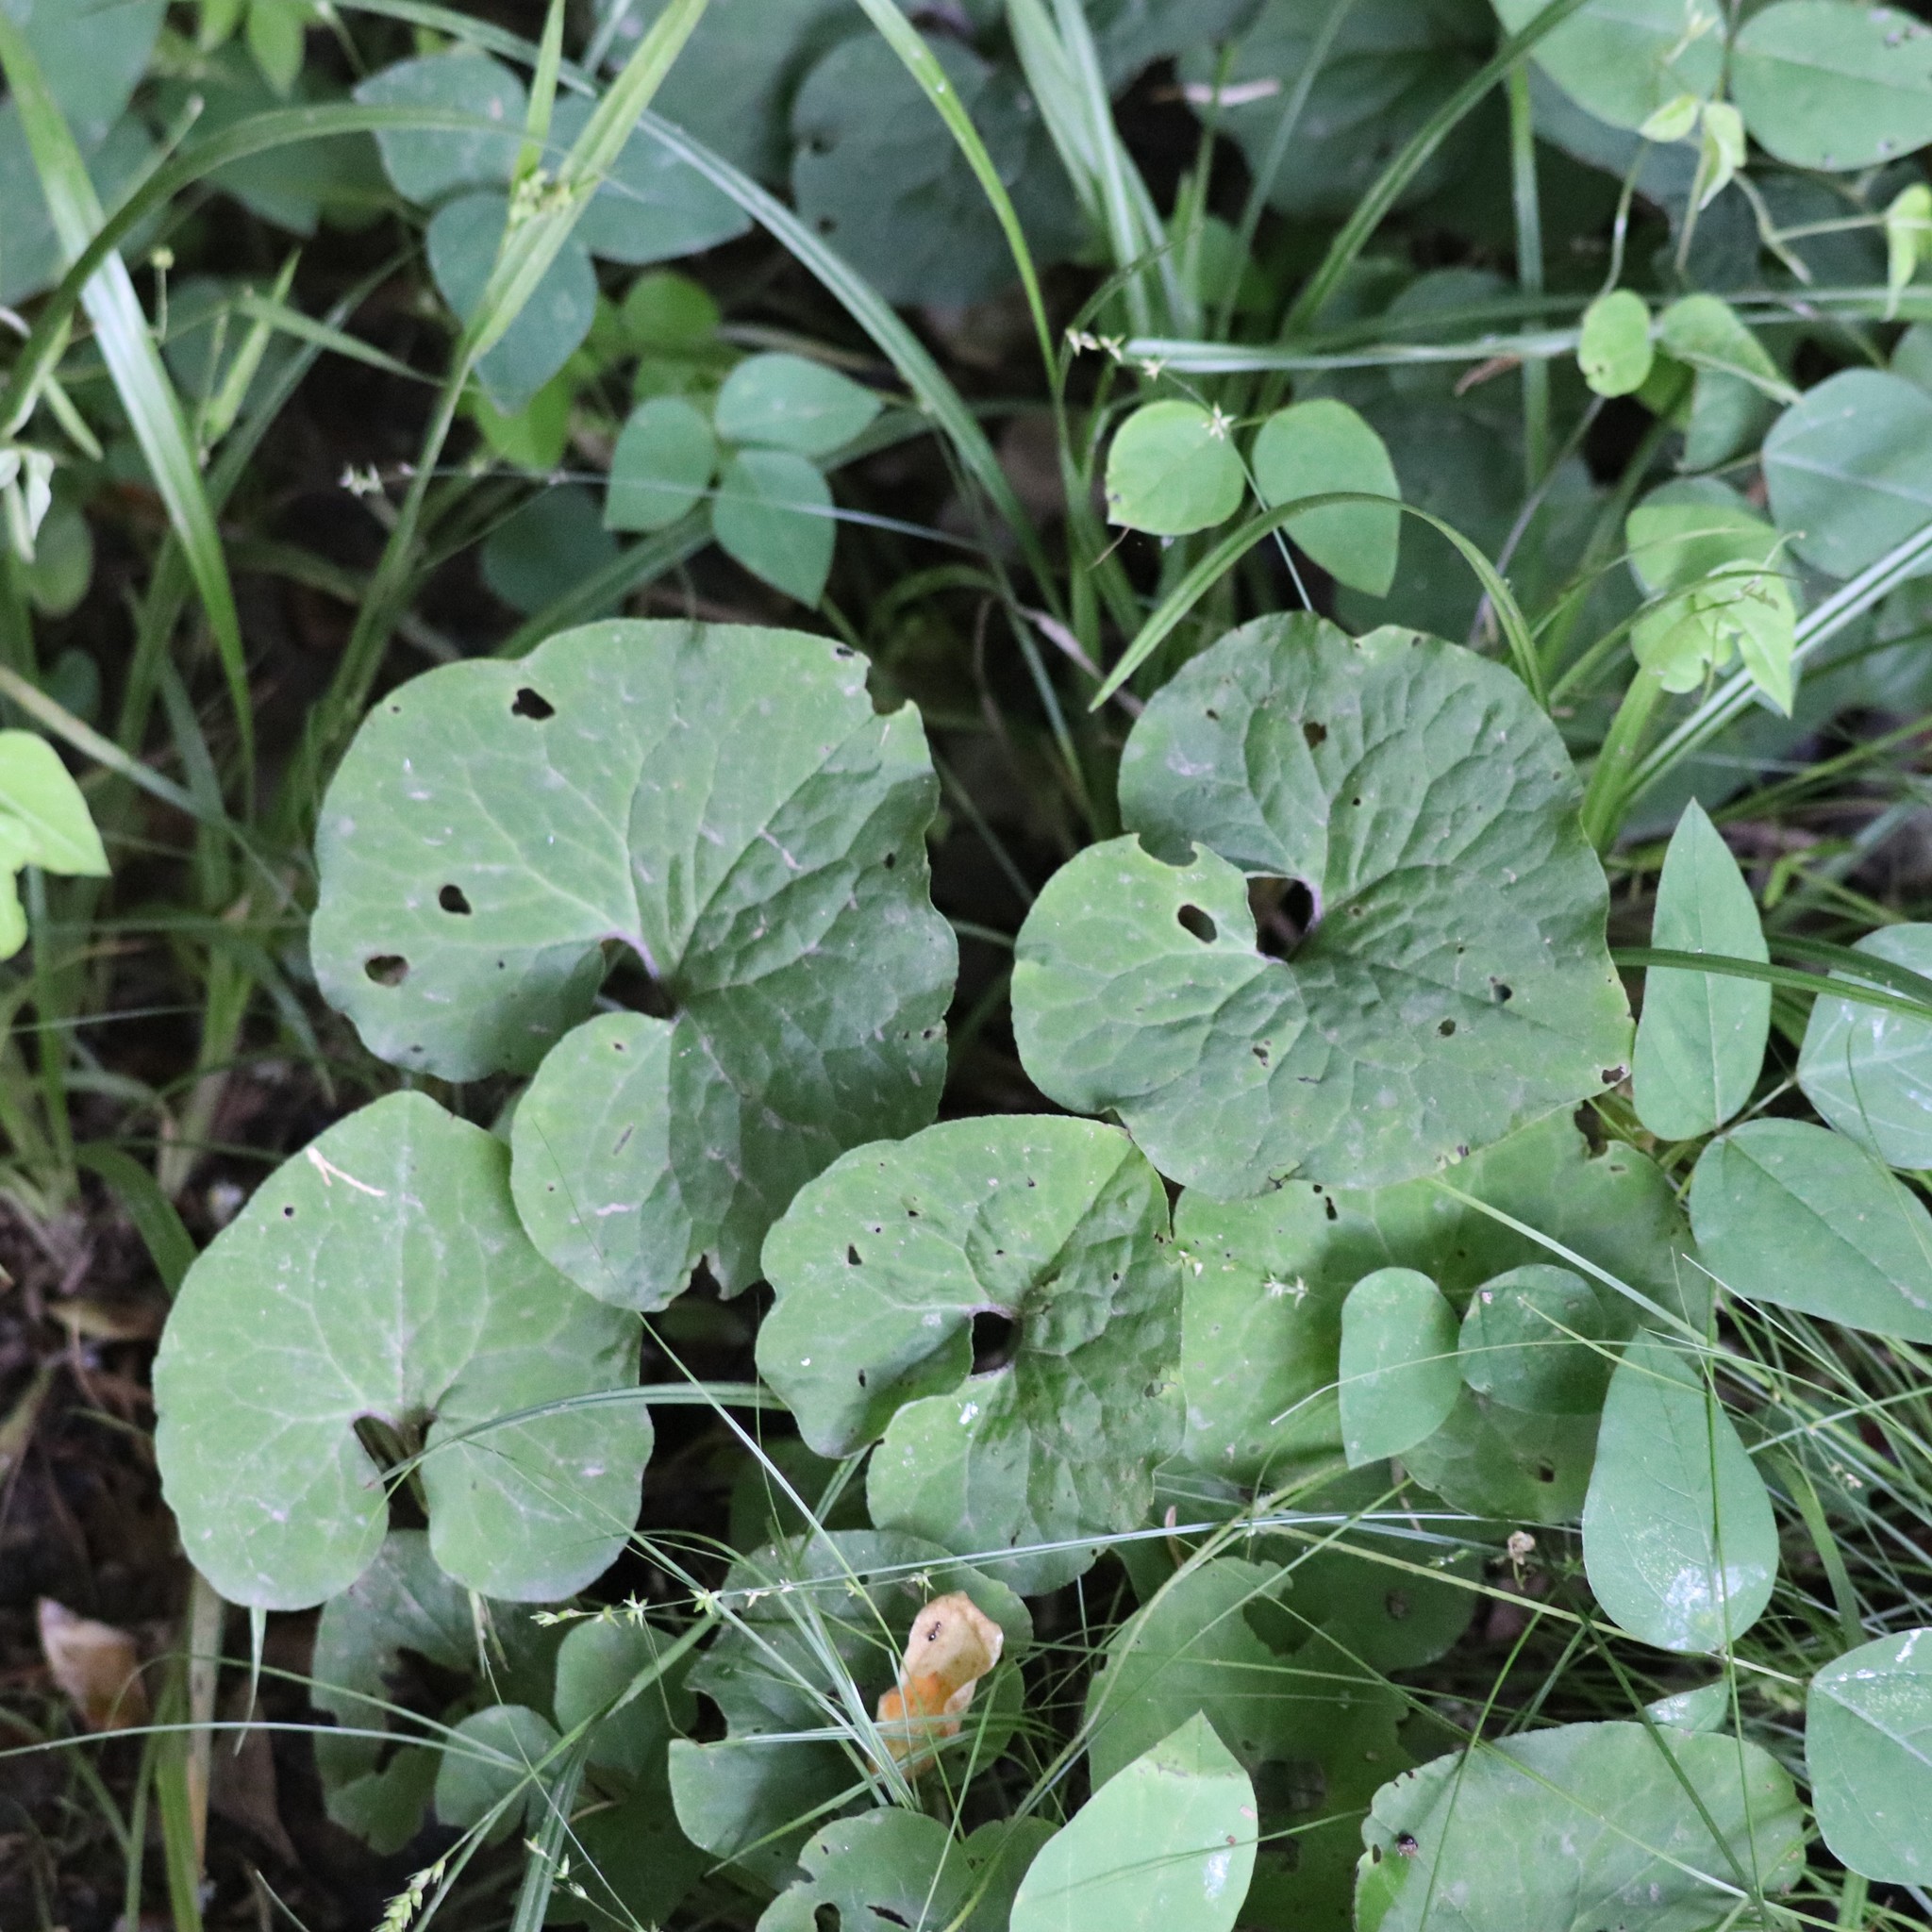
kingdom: Plantae
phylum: Tracheophyta
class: Magnoliopsida
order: Piperales
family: Aristolochiaceae
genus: Asarum
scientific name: Asarum canadense
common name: Wild ginger
